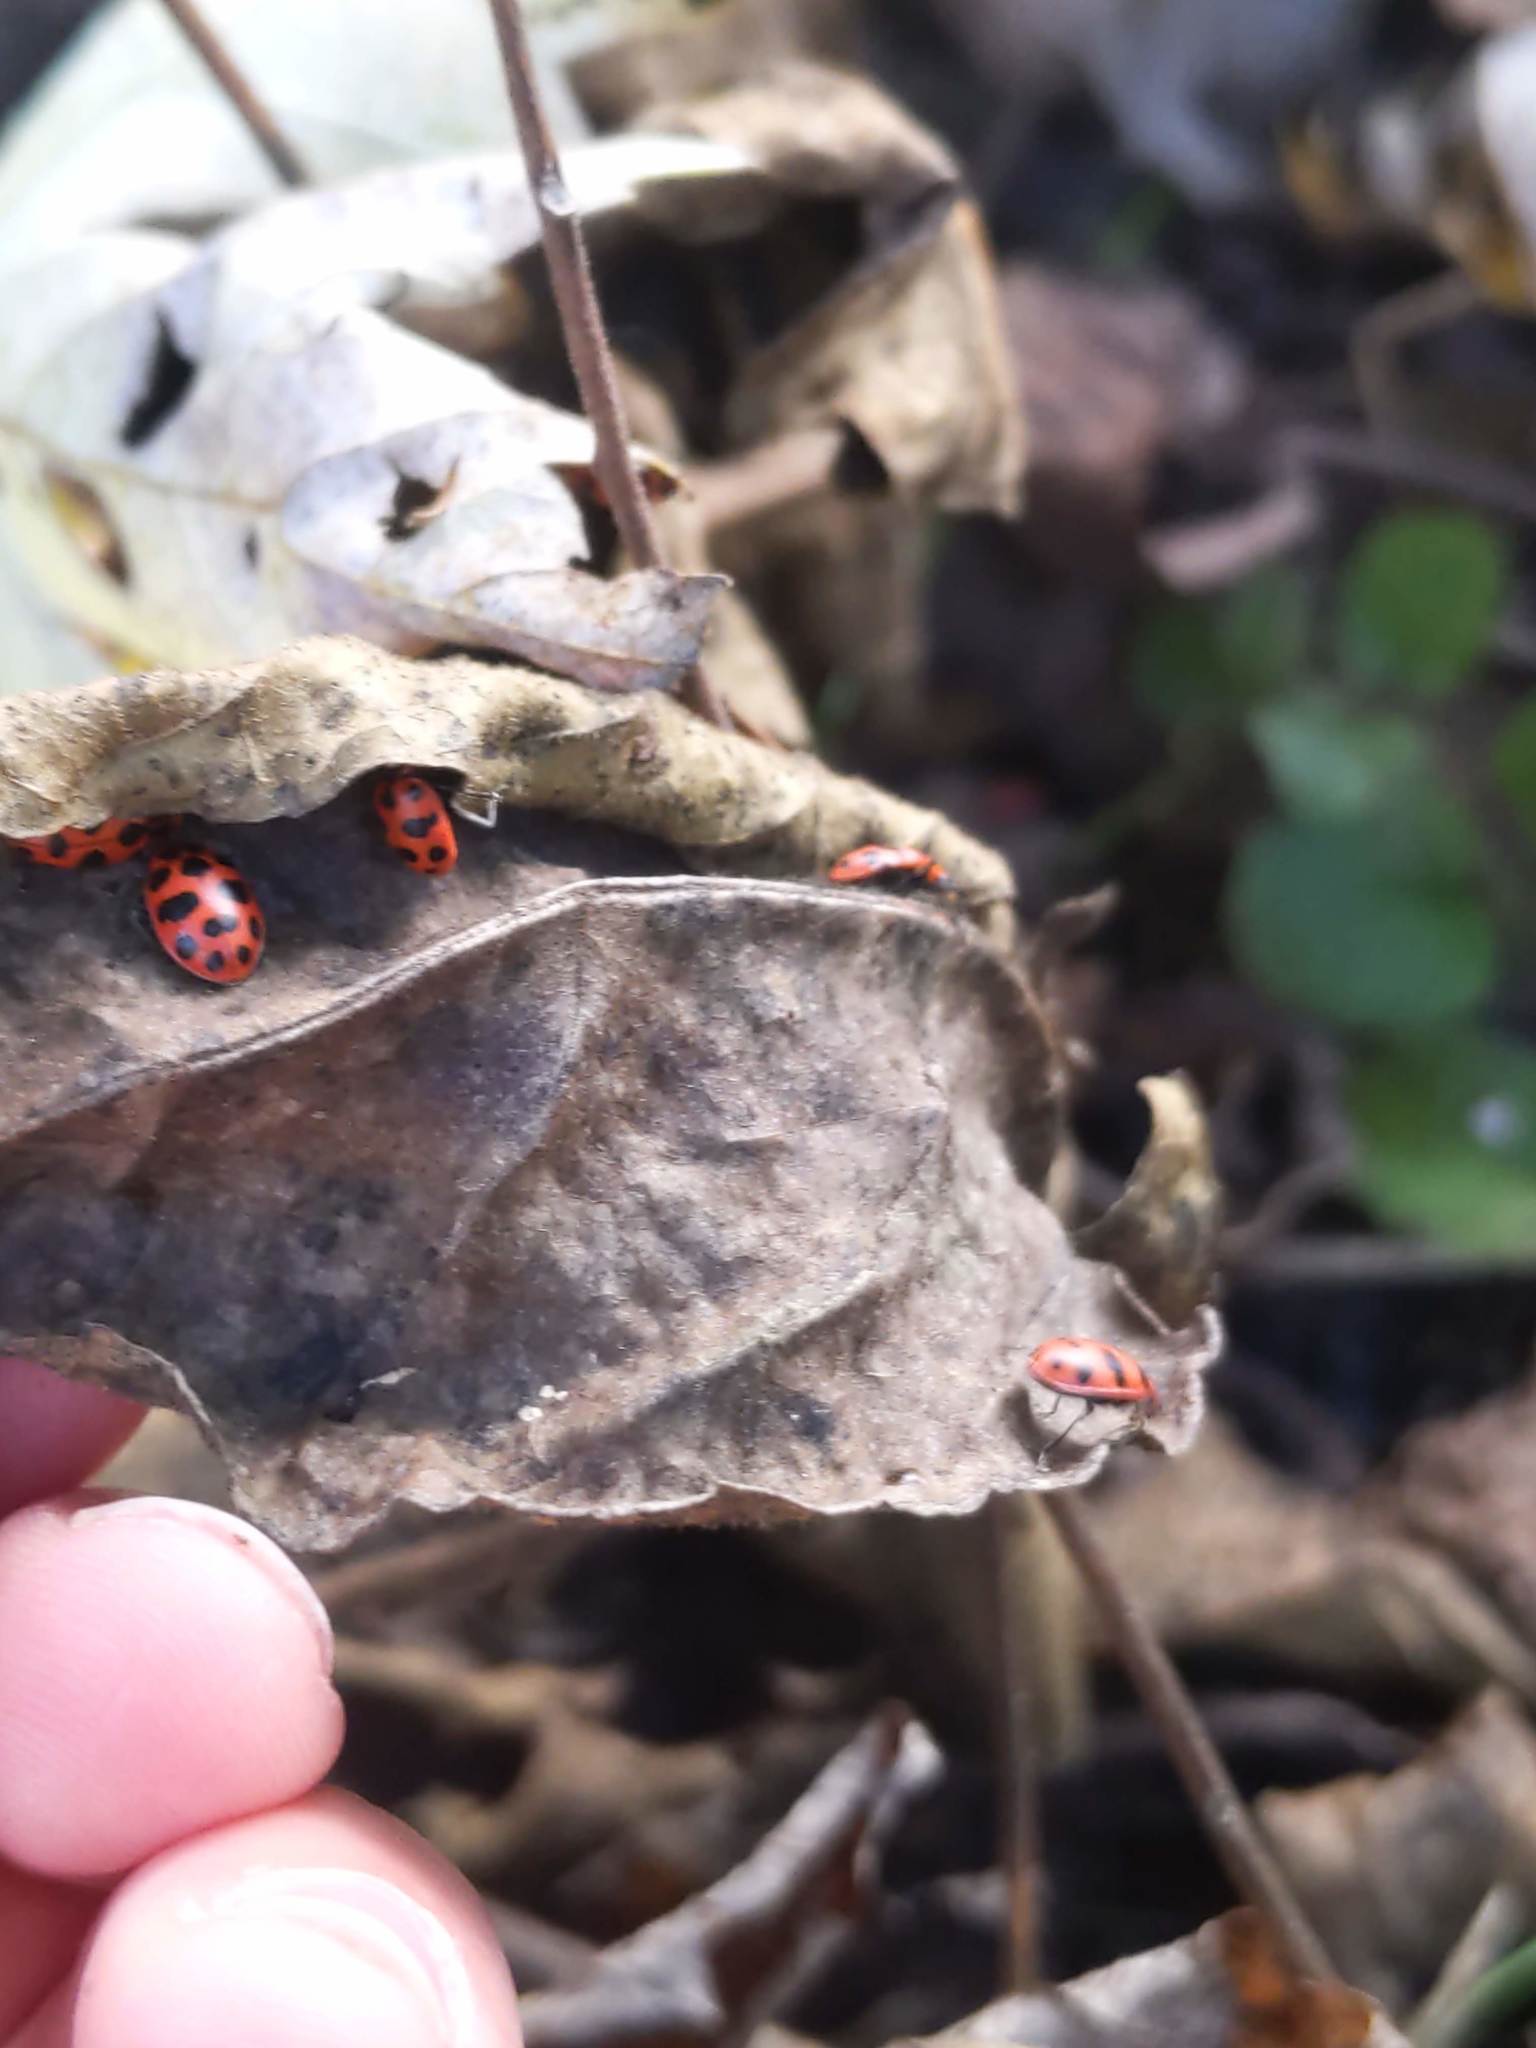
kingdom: Animalia
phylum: Arthropoda
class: Insecta
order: Coleoptera
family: Coccinellidae
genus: Coleomegilla
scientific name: Coleomegilla maculata
